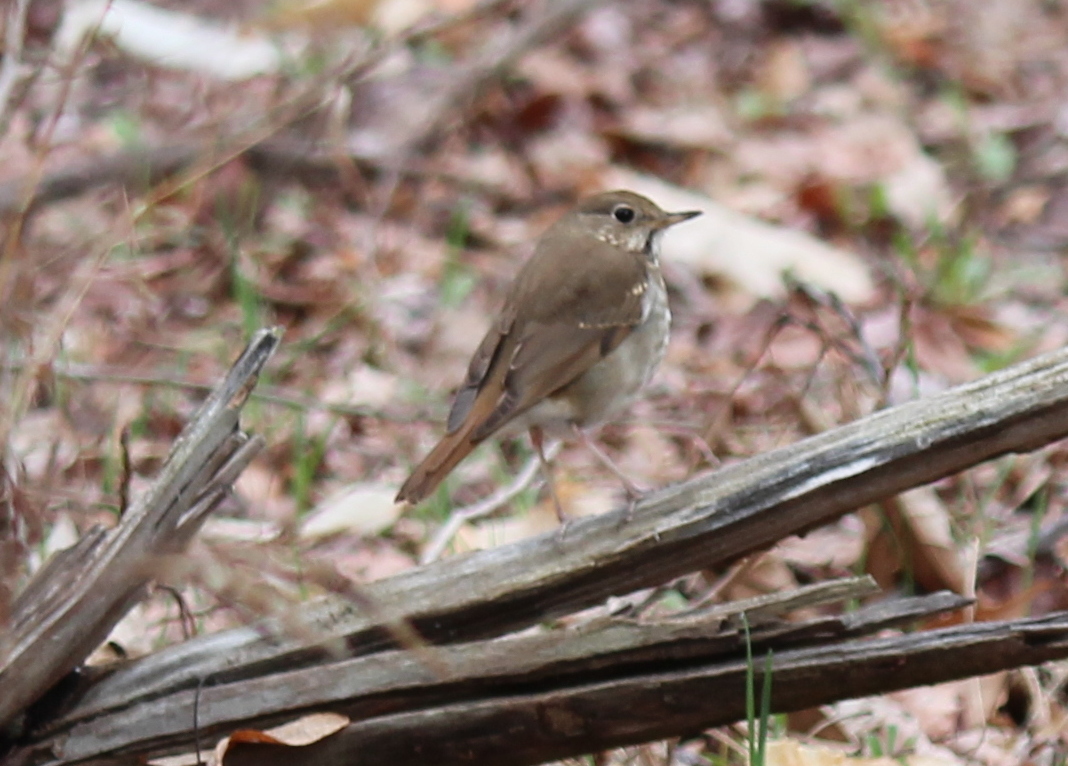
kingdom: Animalia
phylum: Chordata
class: Aves
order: Passeriformes
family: Turdidae
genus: Catharus
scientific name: Catharus guttatus
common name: Hermit thrush
